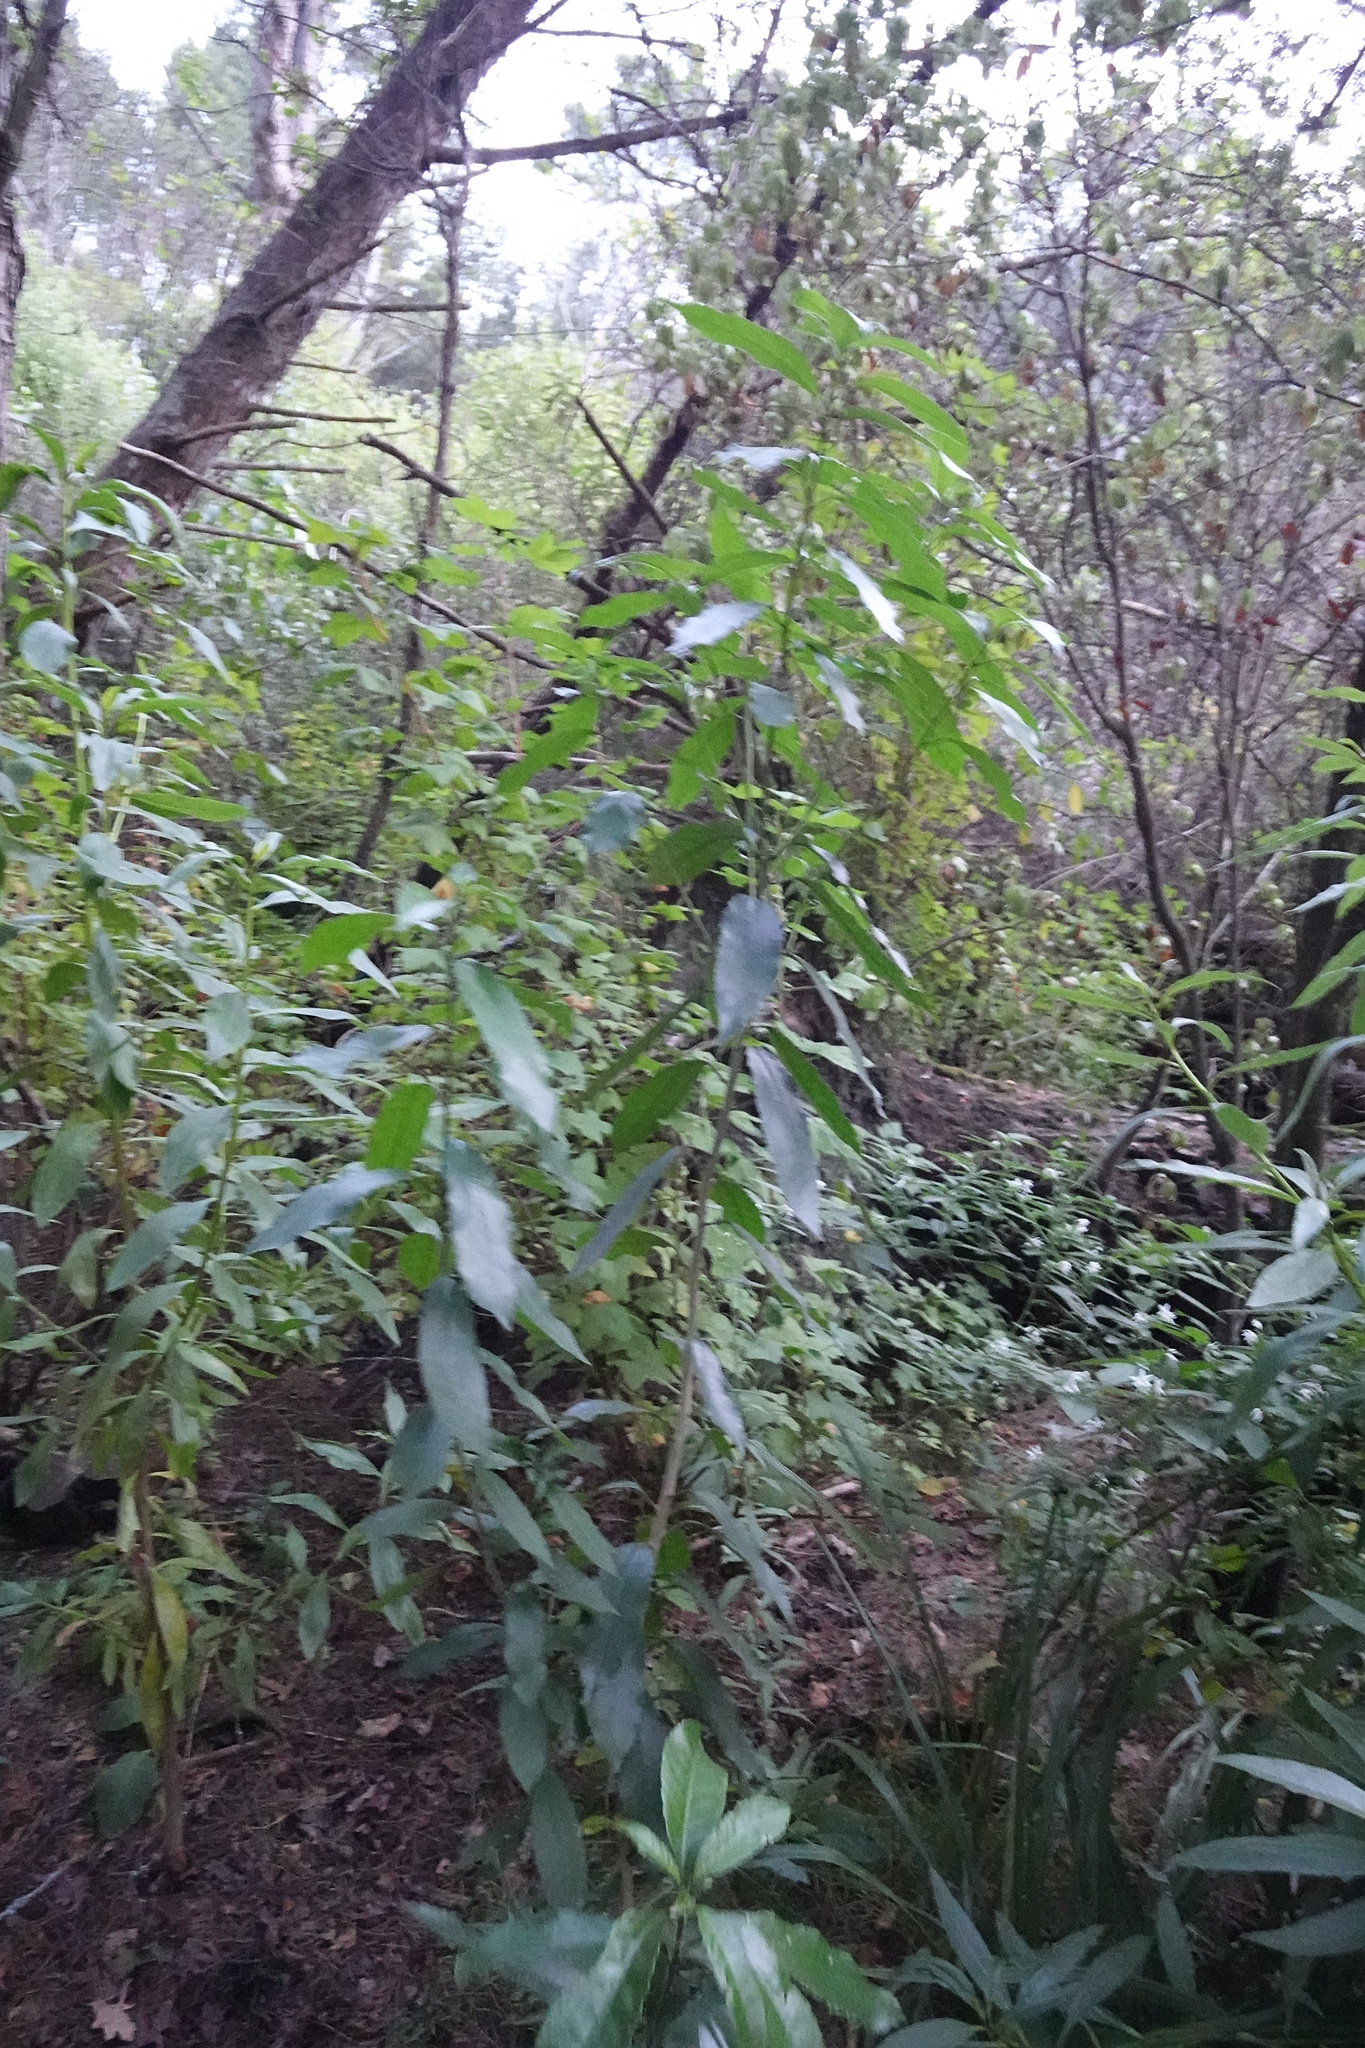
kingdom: Plantae
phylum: Tracheophyta
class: Magnoliopsida
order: Malpighiales
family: Violaceae
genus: Melicytus
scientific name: Melicytus ramiflorus
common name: Mahoe
